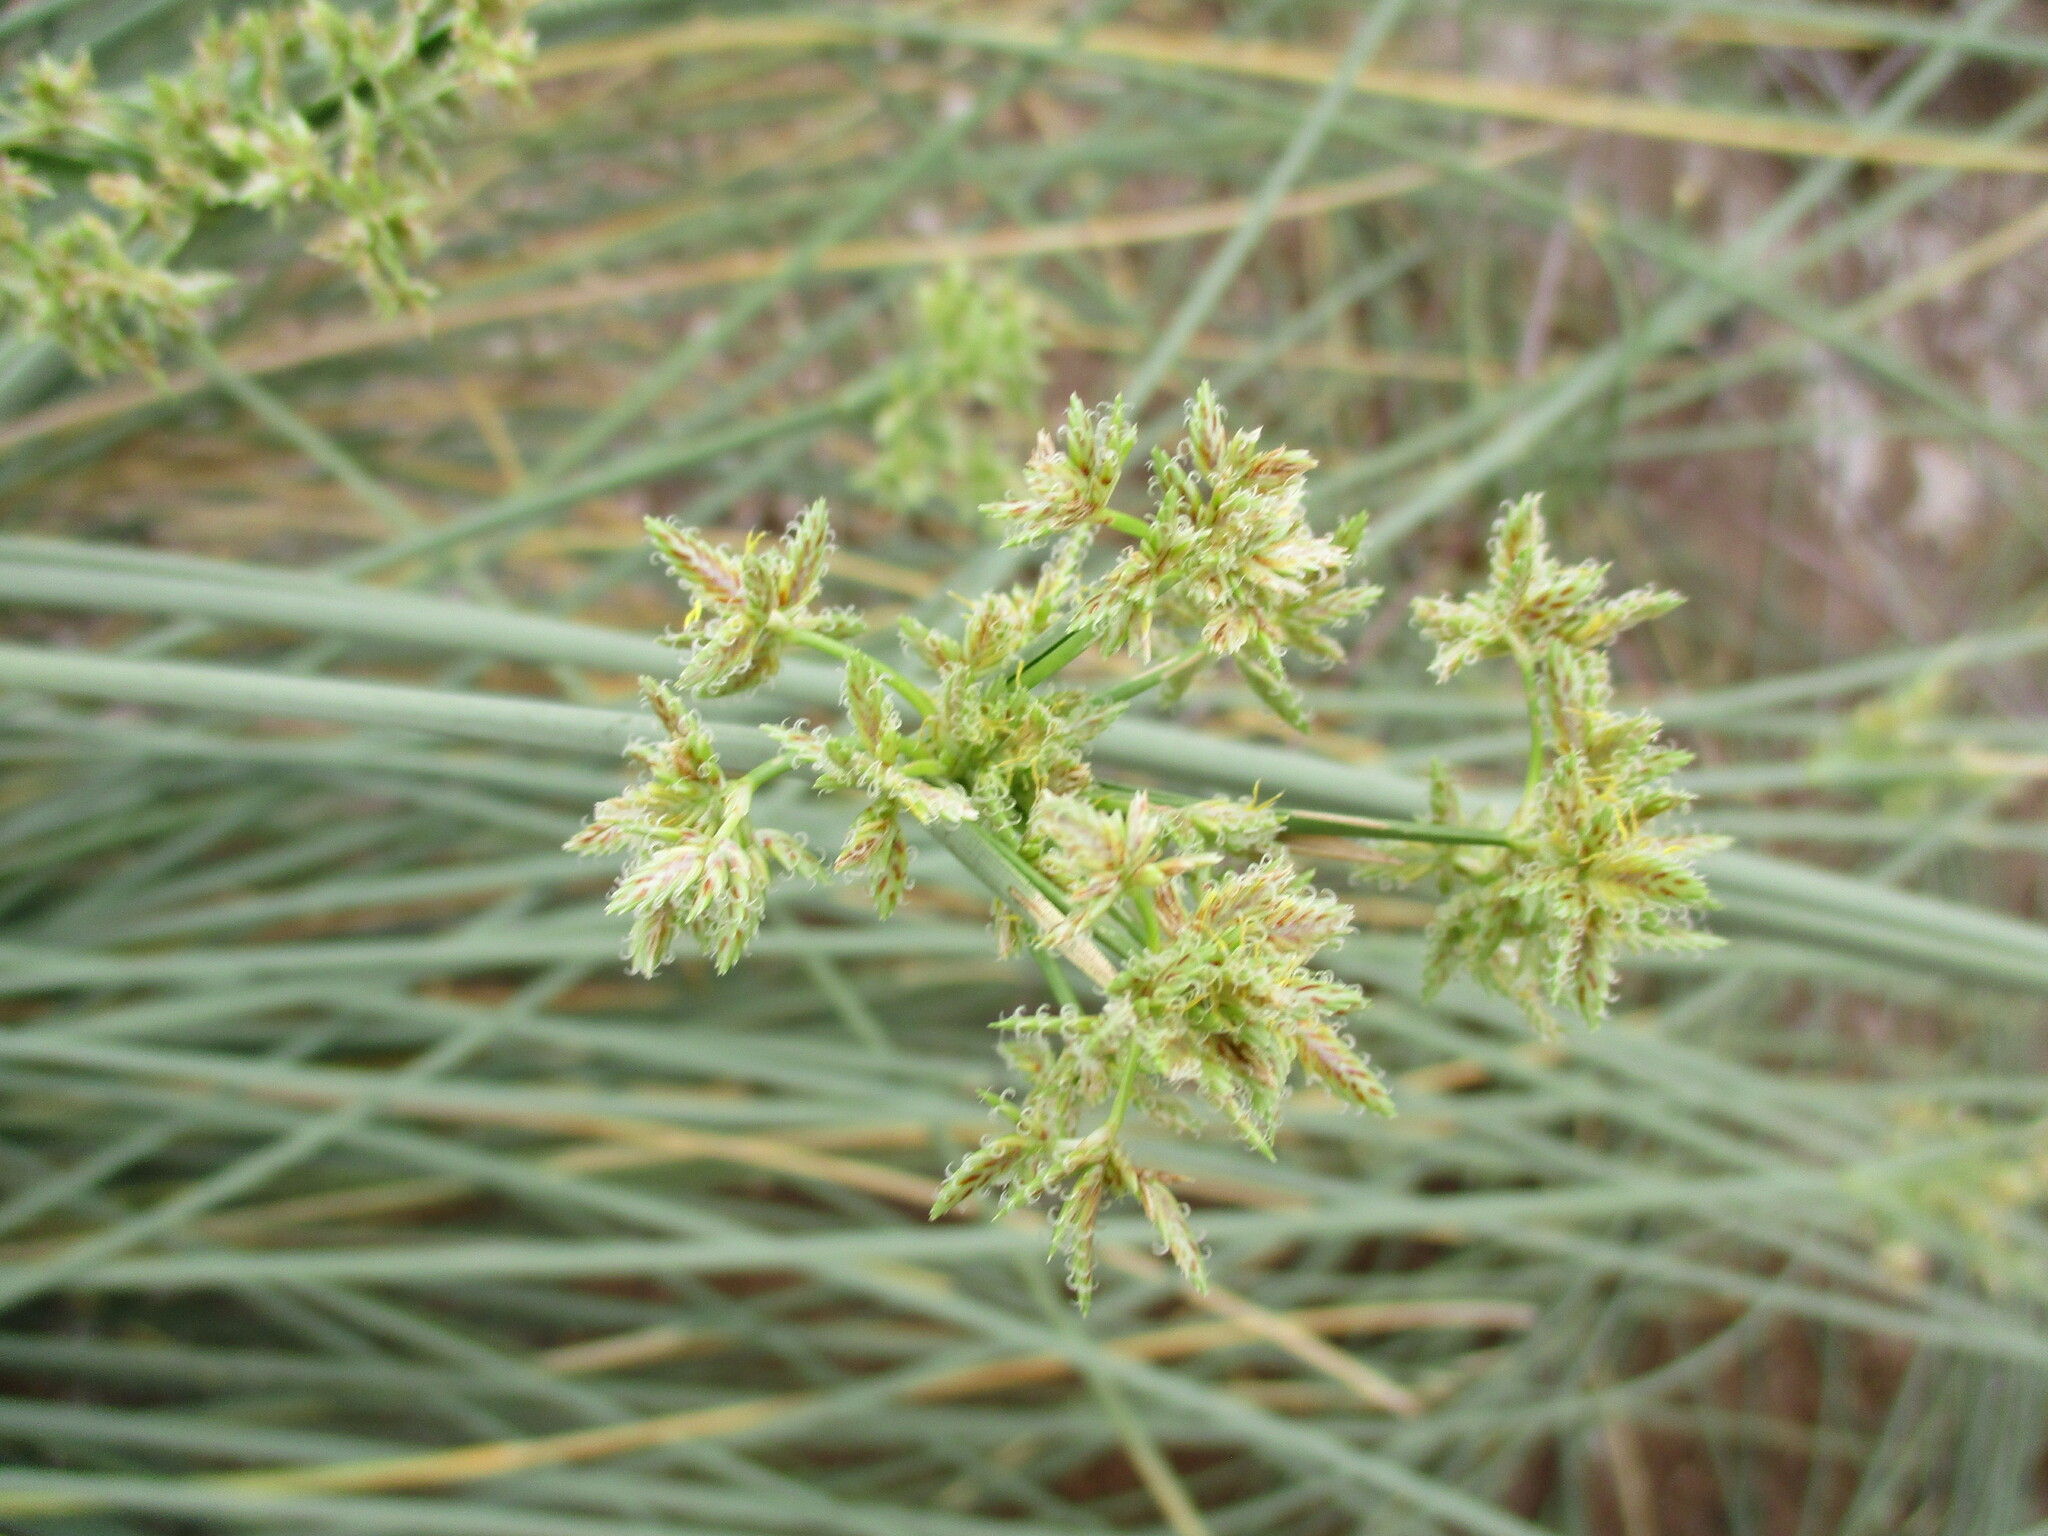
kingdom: Plantae
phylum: Tracheophyta
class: Liliopsida
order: Poales
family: Cyperaceae
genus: Cyperus
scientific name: Cyperus marginatus
